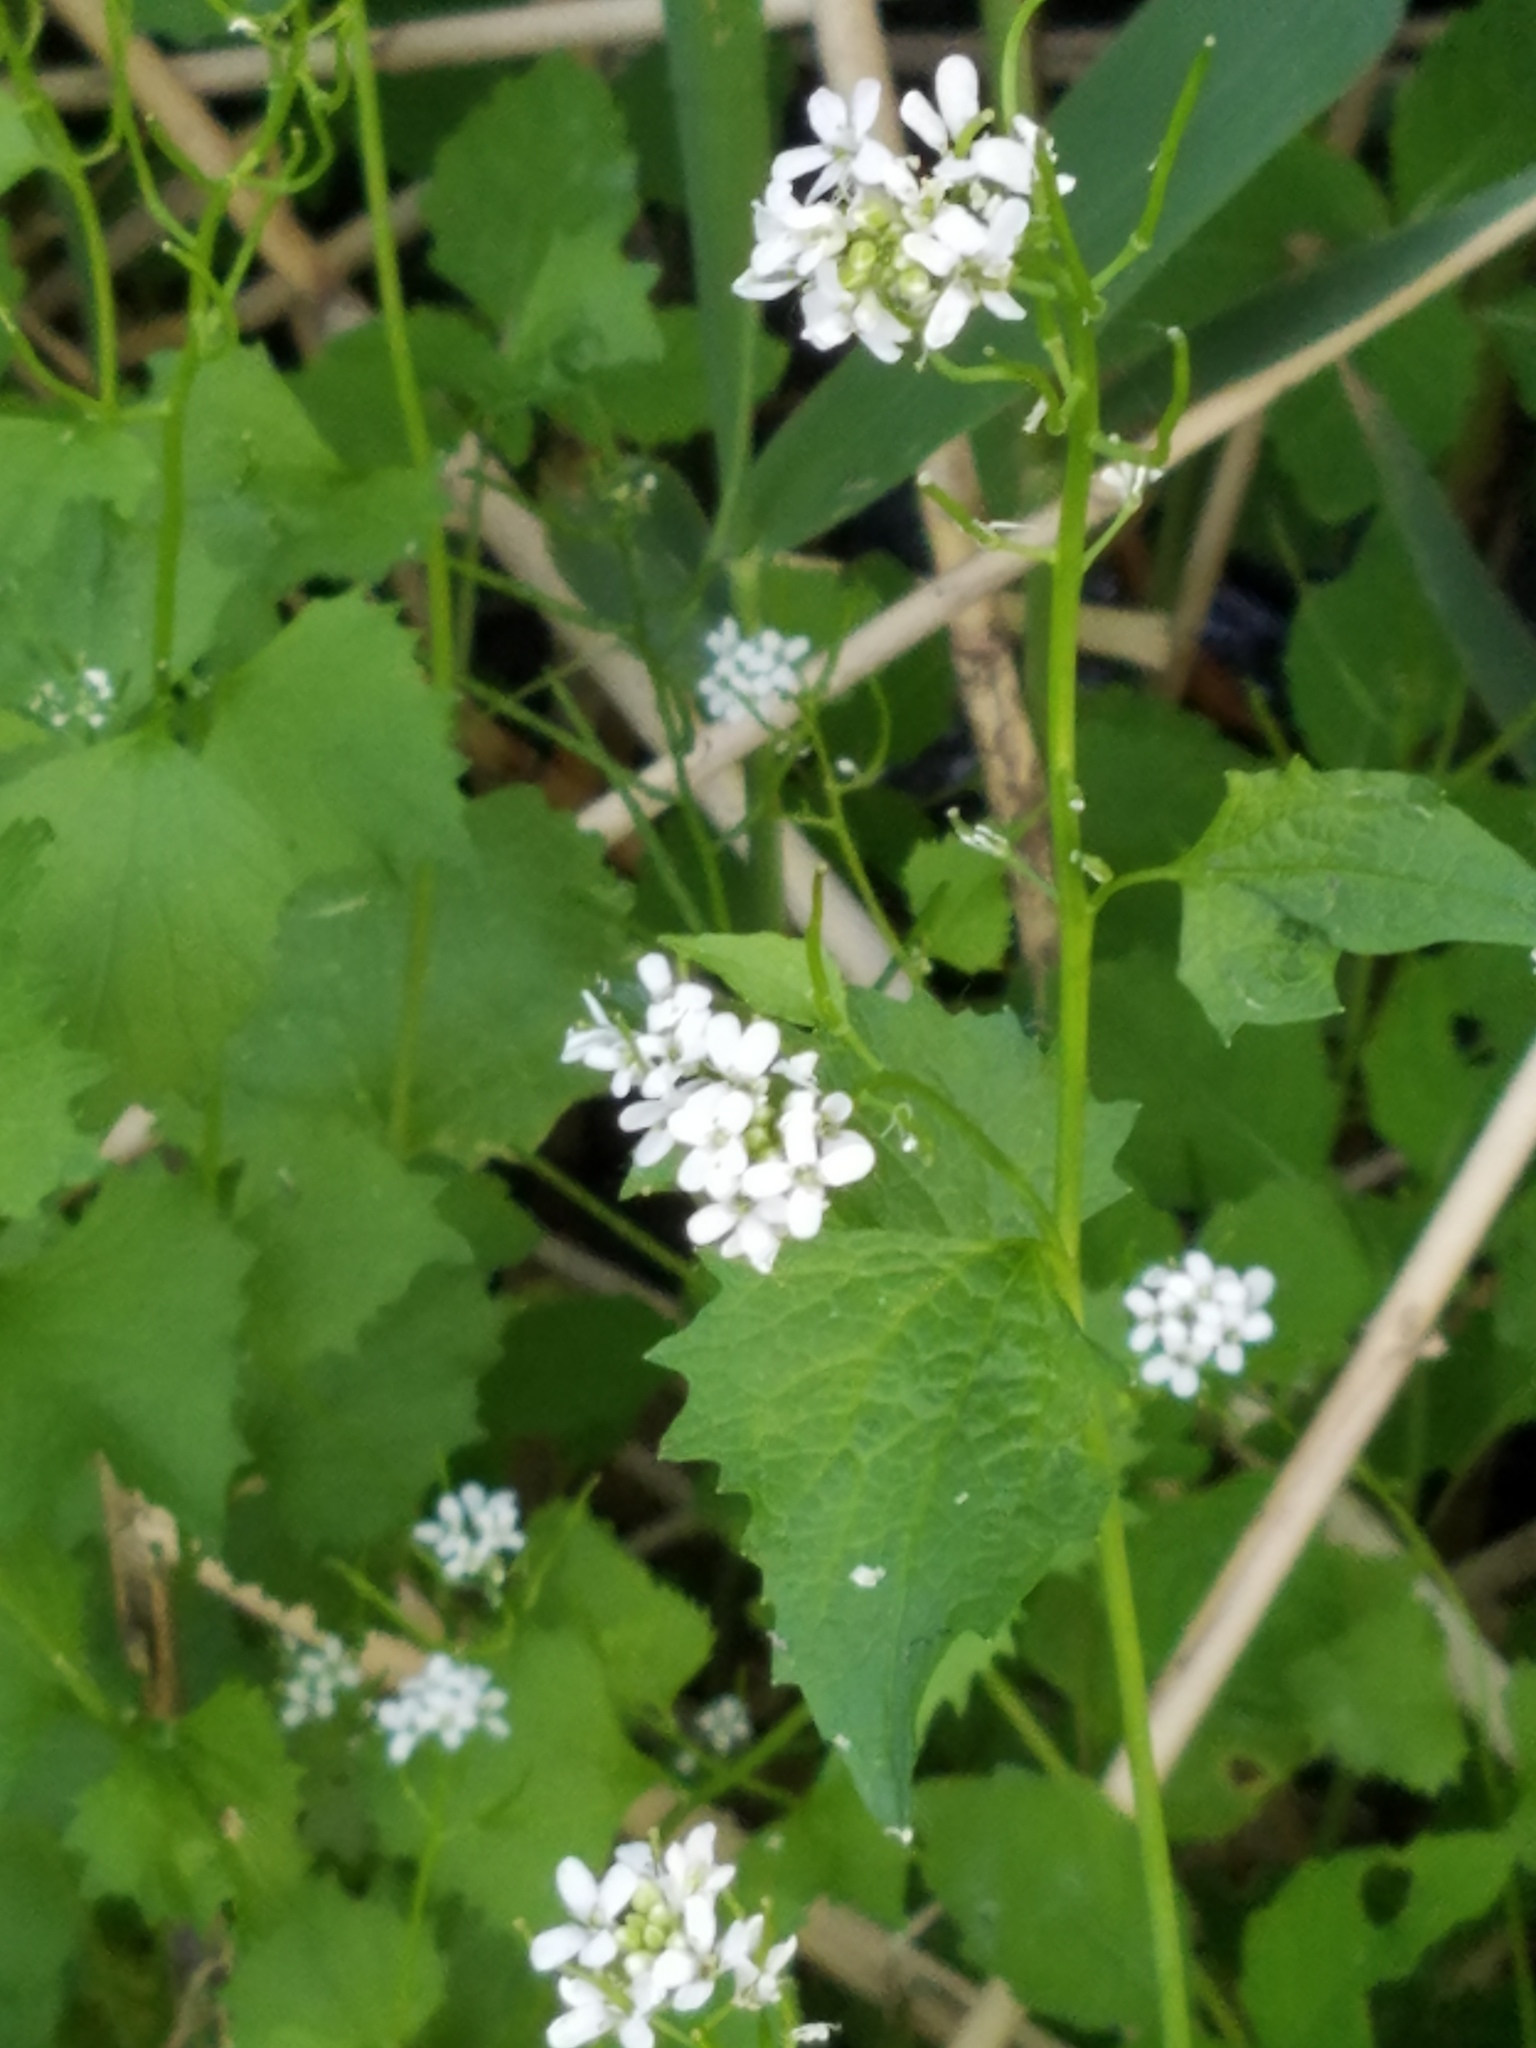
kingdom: Plantae
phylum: Tracheophyta
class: Magnoliopsida
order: Brassicales
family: Brassicaceae
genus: Alliaria
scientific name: Alliaria petiolata
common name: Garlic mustard
